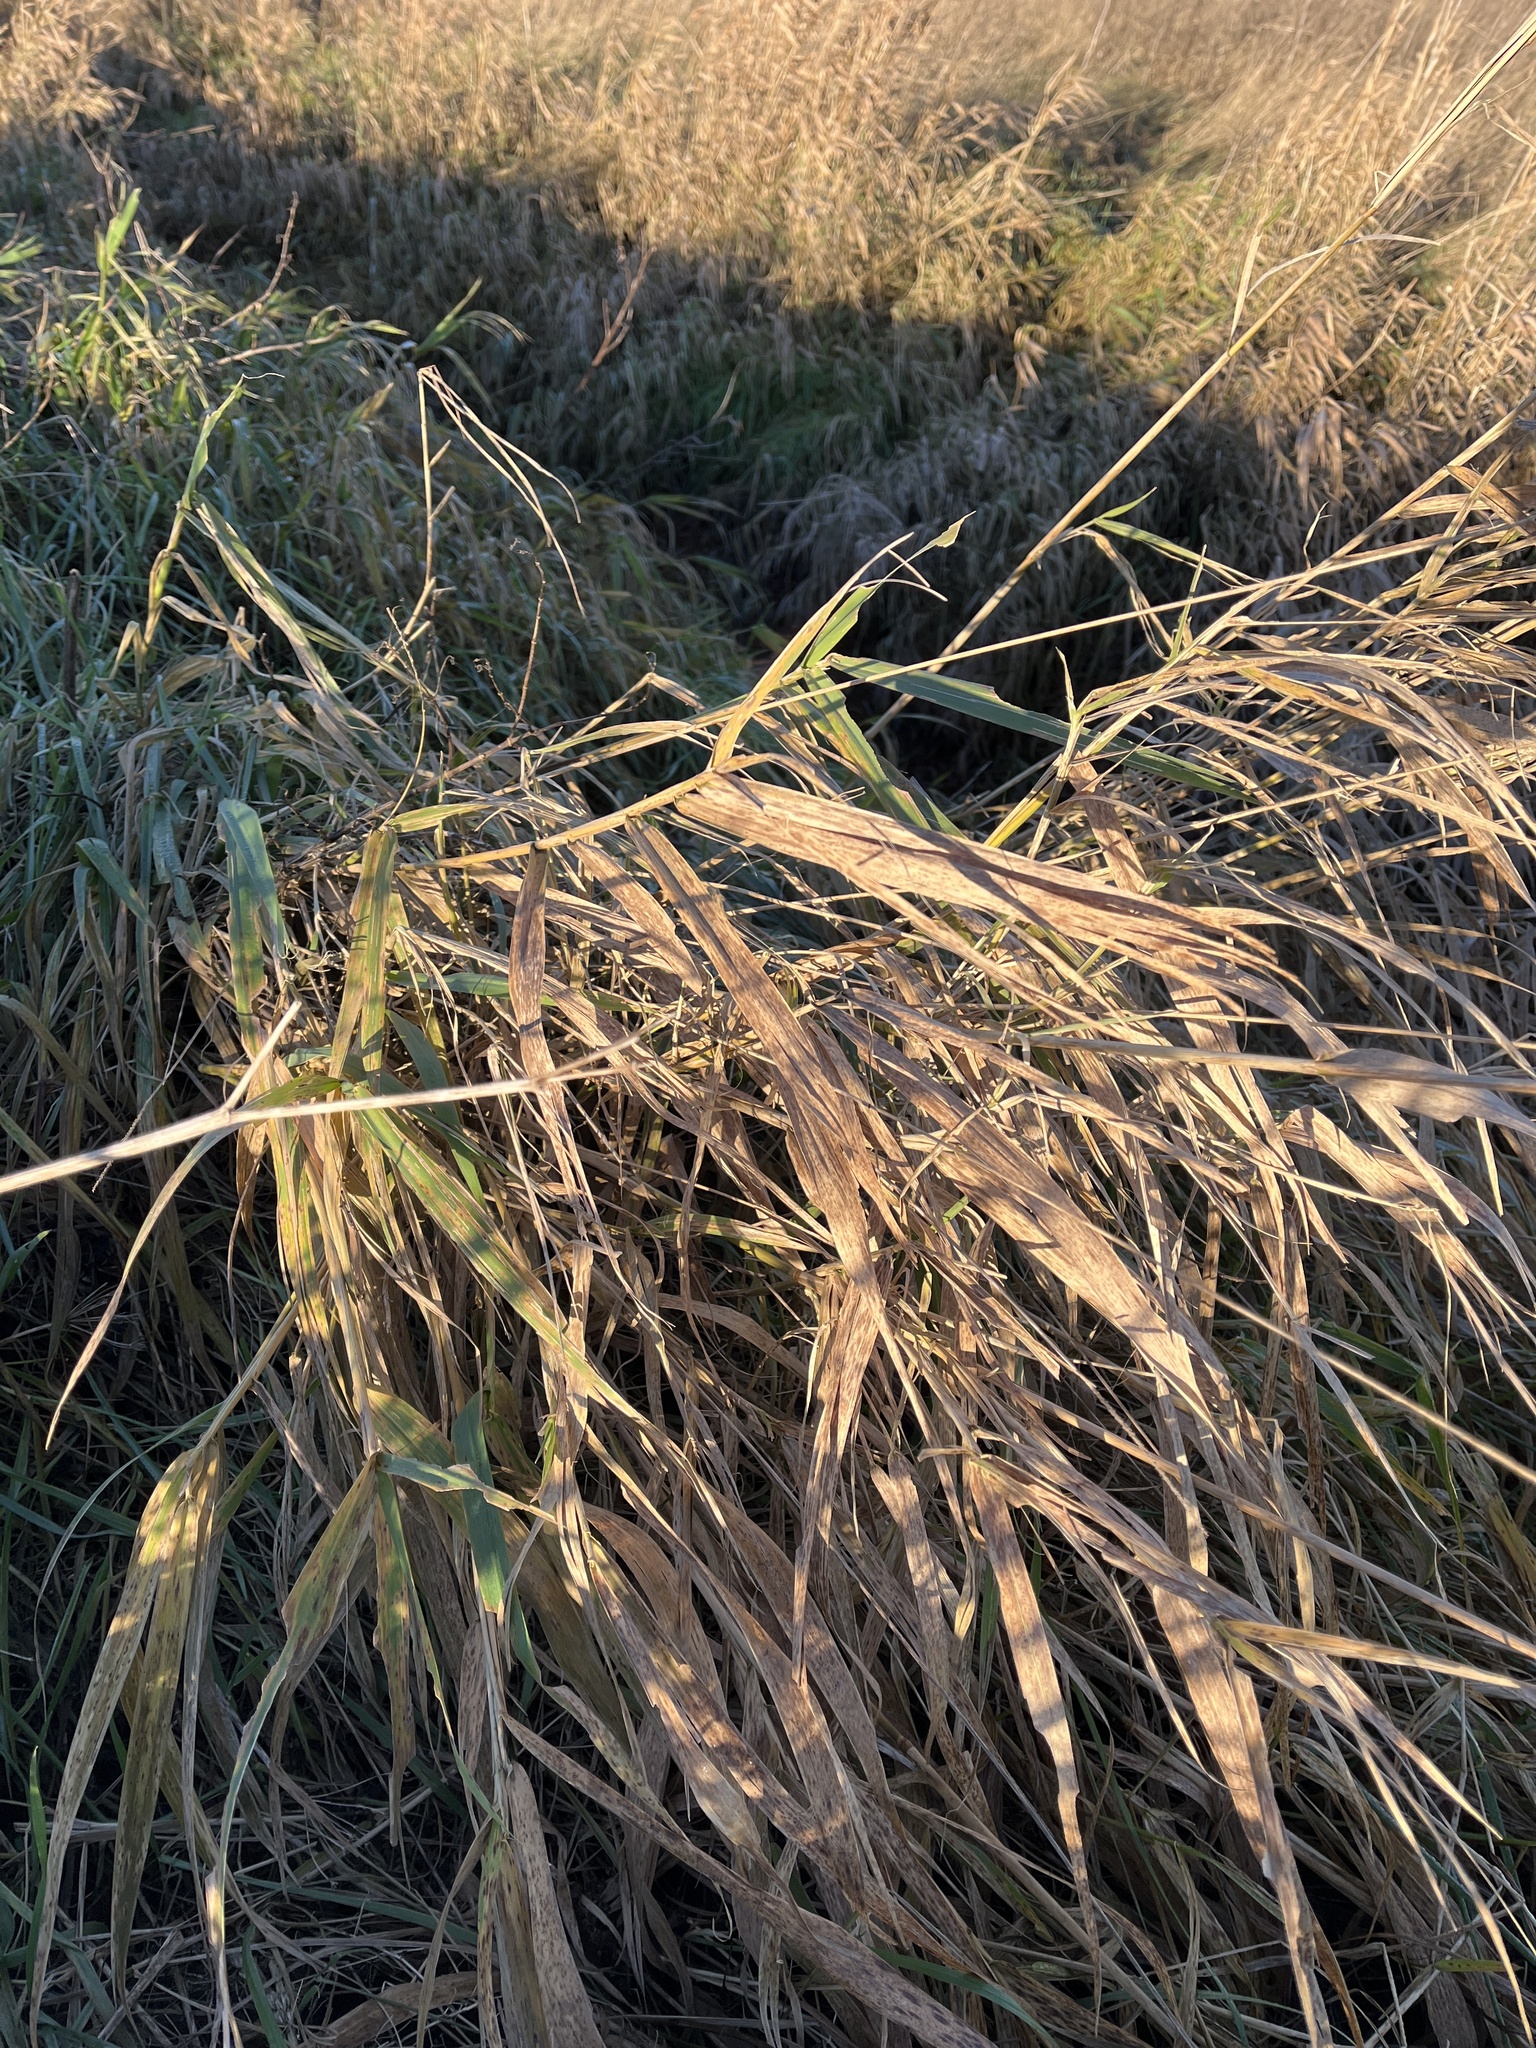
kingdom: Plantae
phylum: Tracheophyta
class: Liliopsida
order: Poales
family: Poaceae
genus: Phalaris
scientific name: Phalaris arundinacea
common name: Reed canary-grass
